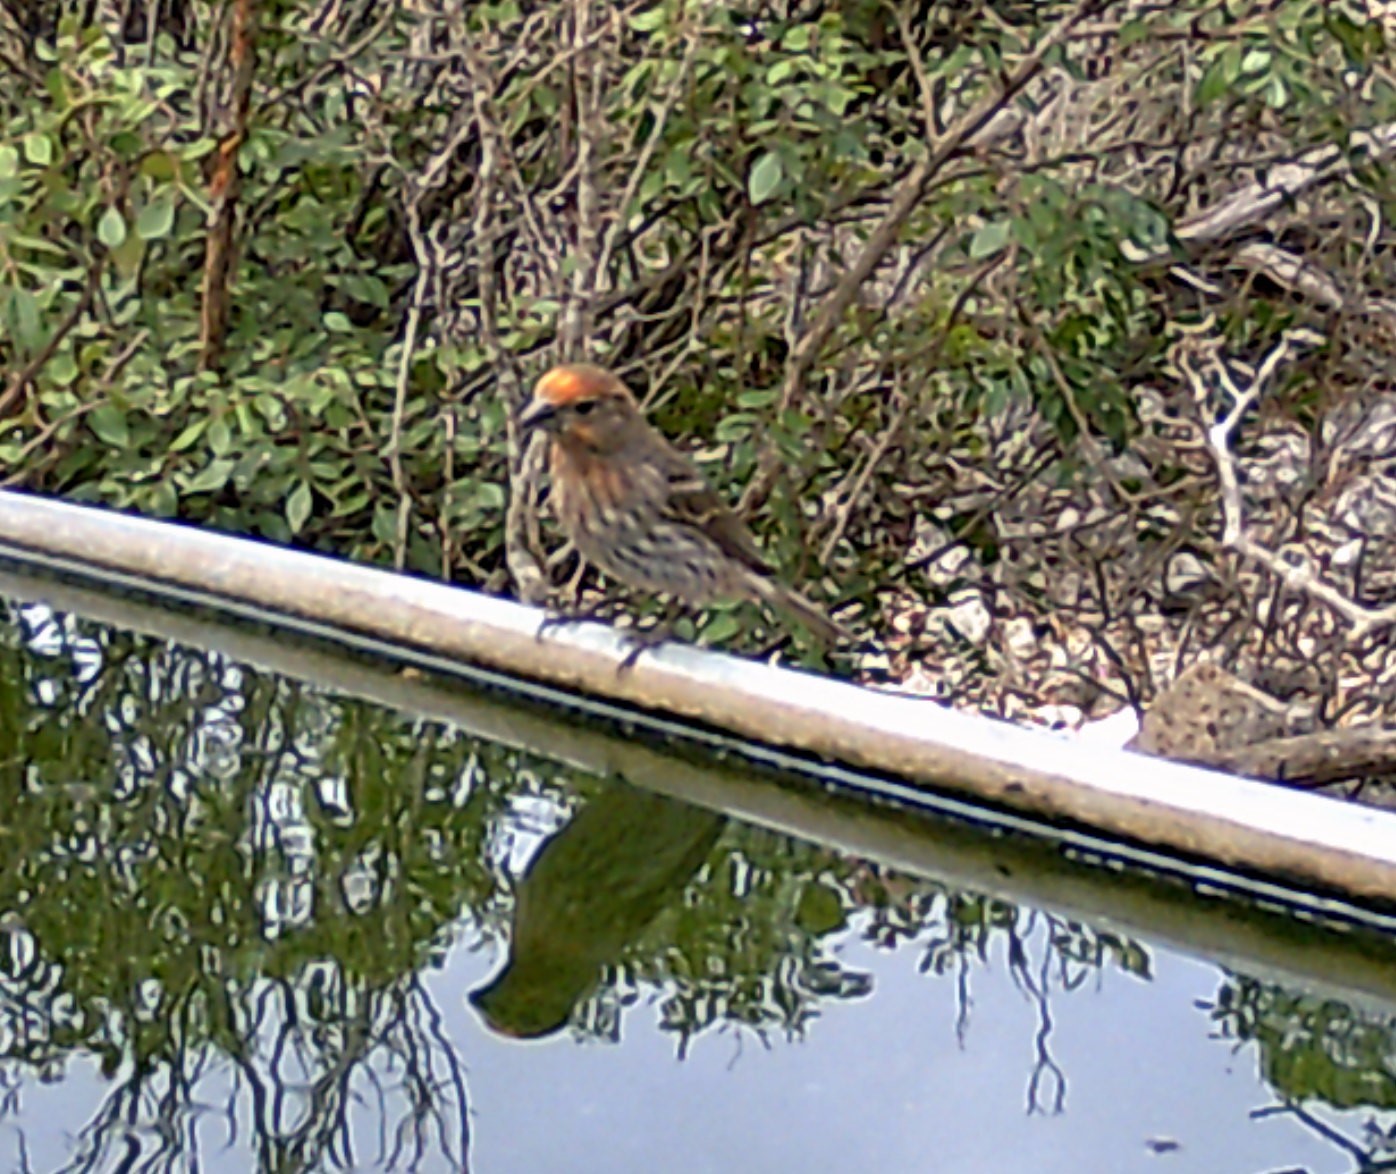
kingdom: Animalia
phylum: Chordata
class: Aves
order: Passeriformes
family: Fringillidae
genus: Haemorhous
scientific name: Haemorhous mexicanus
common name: House finch
